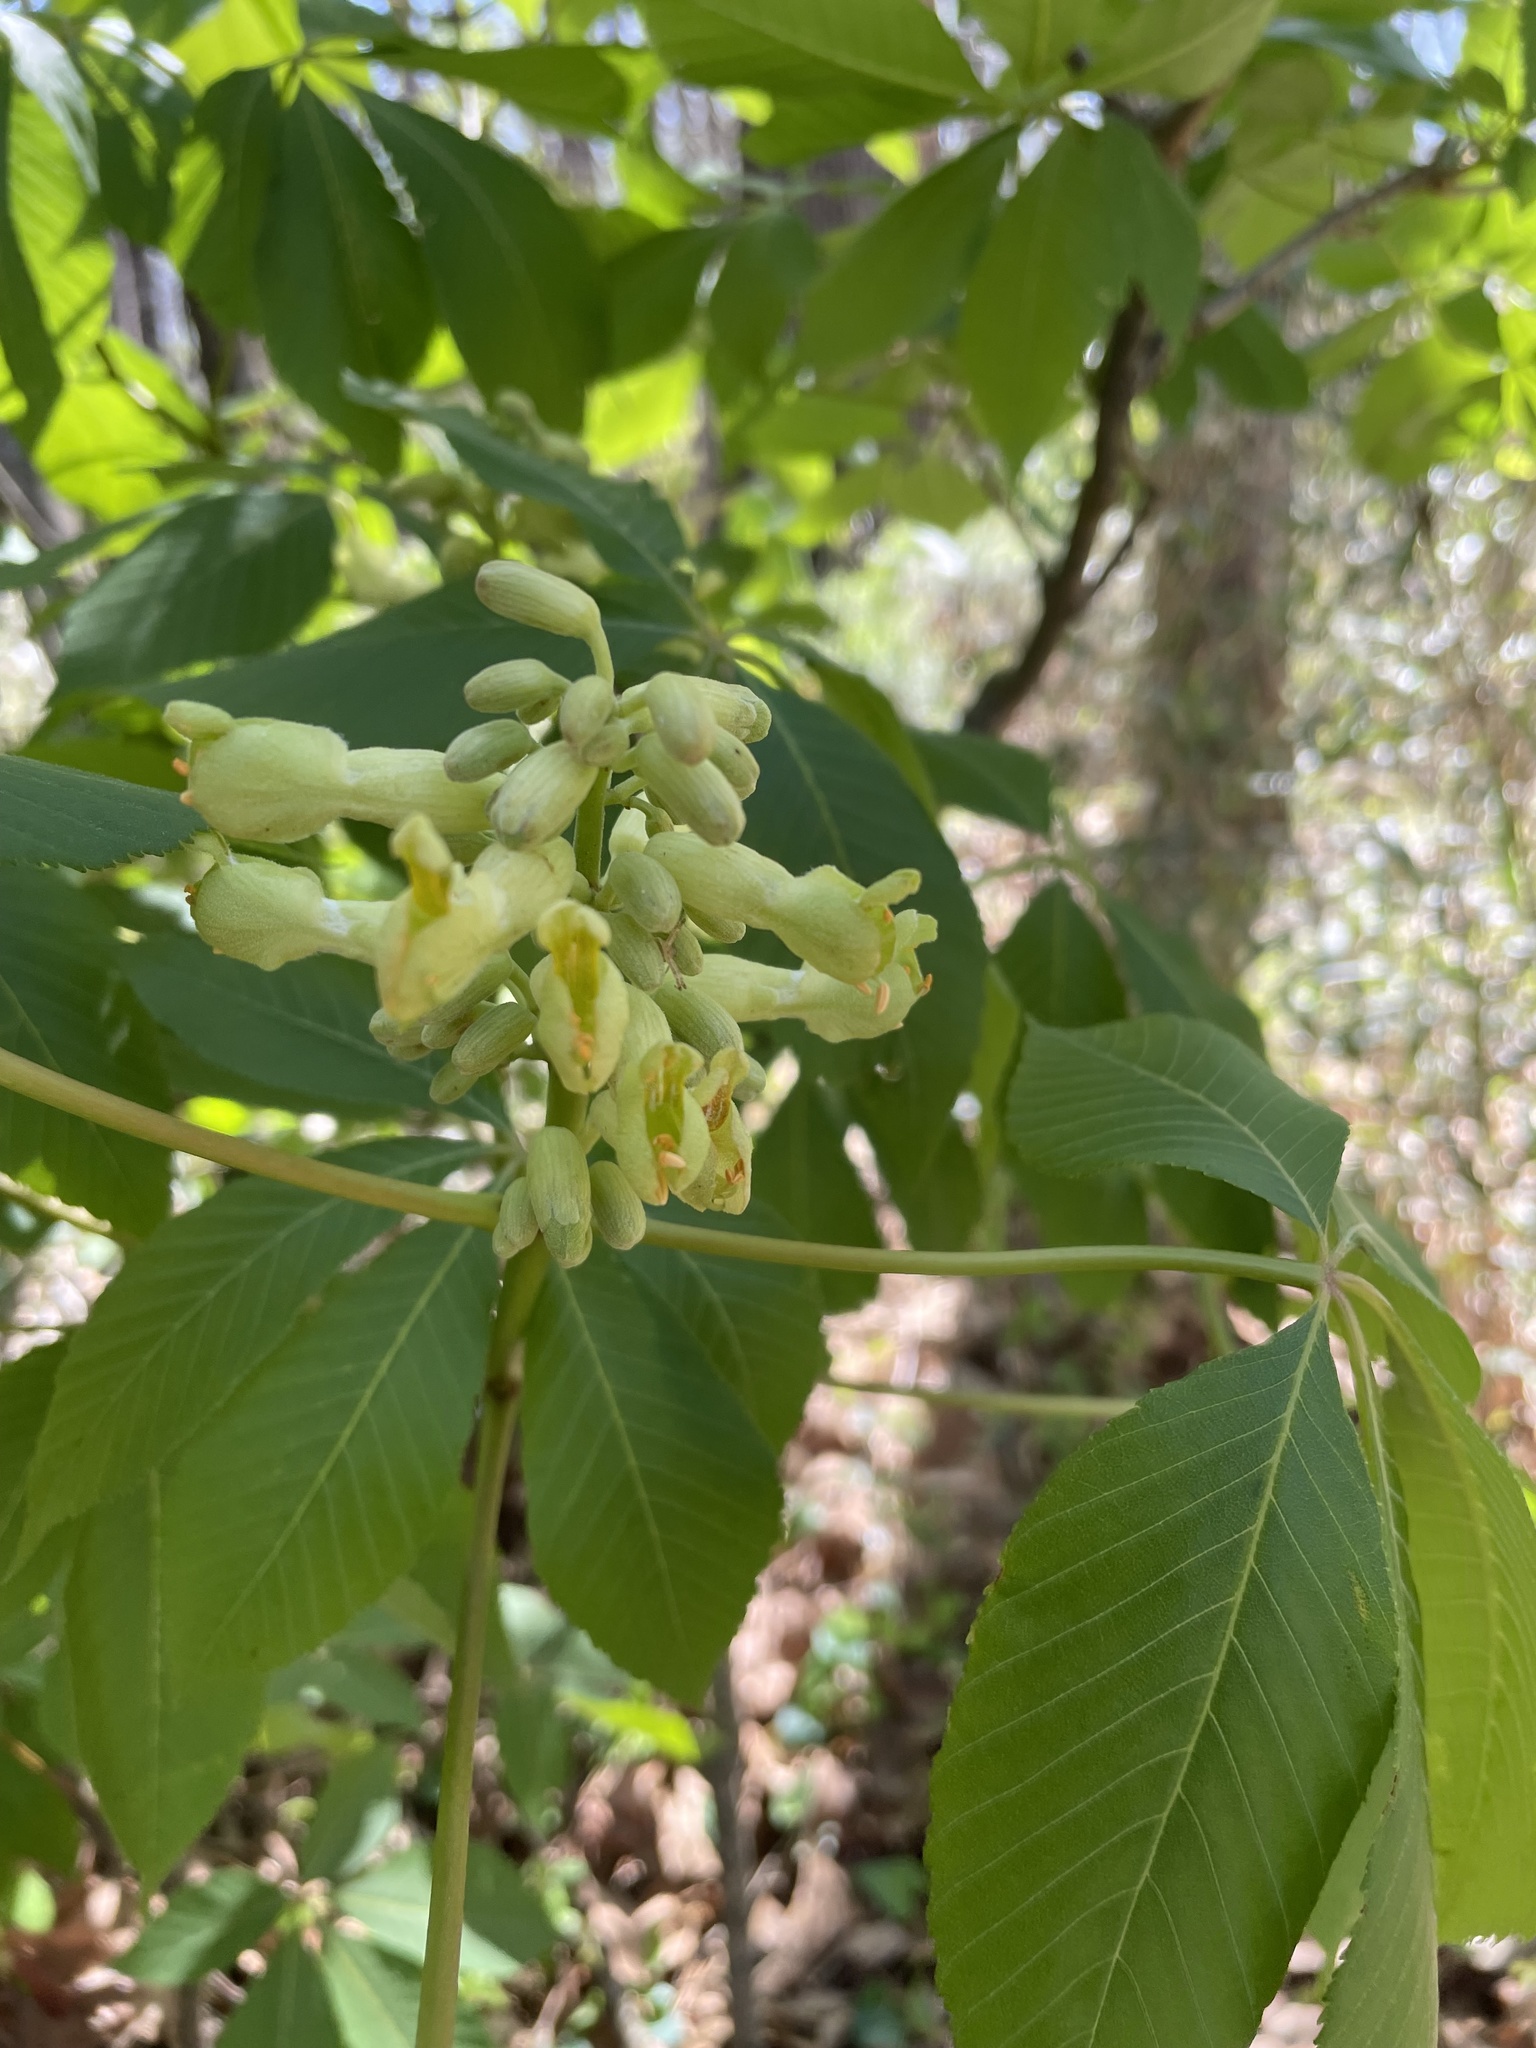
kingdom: Plantae
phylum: Tracheophyta
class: Magnoliopsida
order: Sapindales
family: Sapindaceae
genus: Aesculus
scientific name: Aesculus sylvatica
